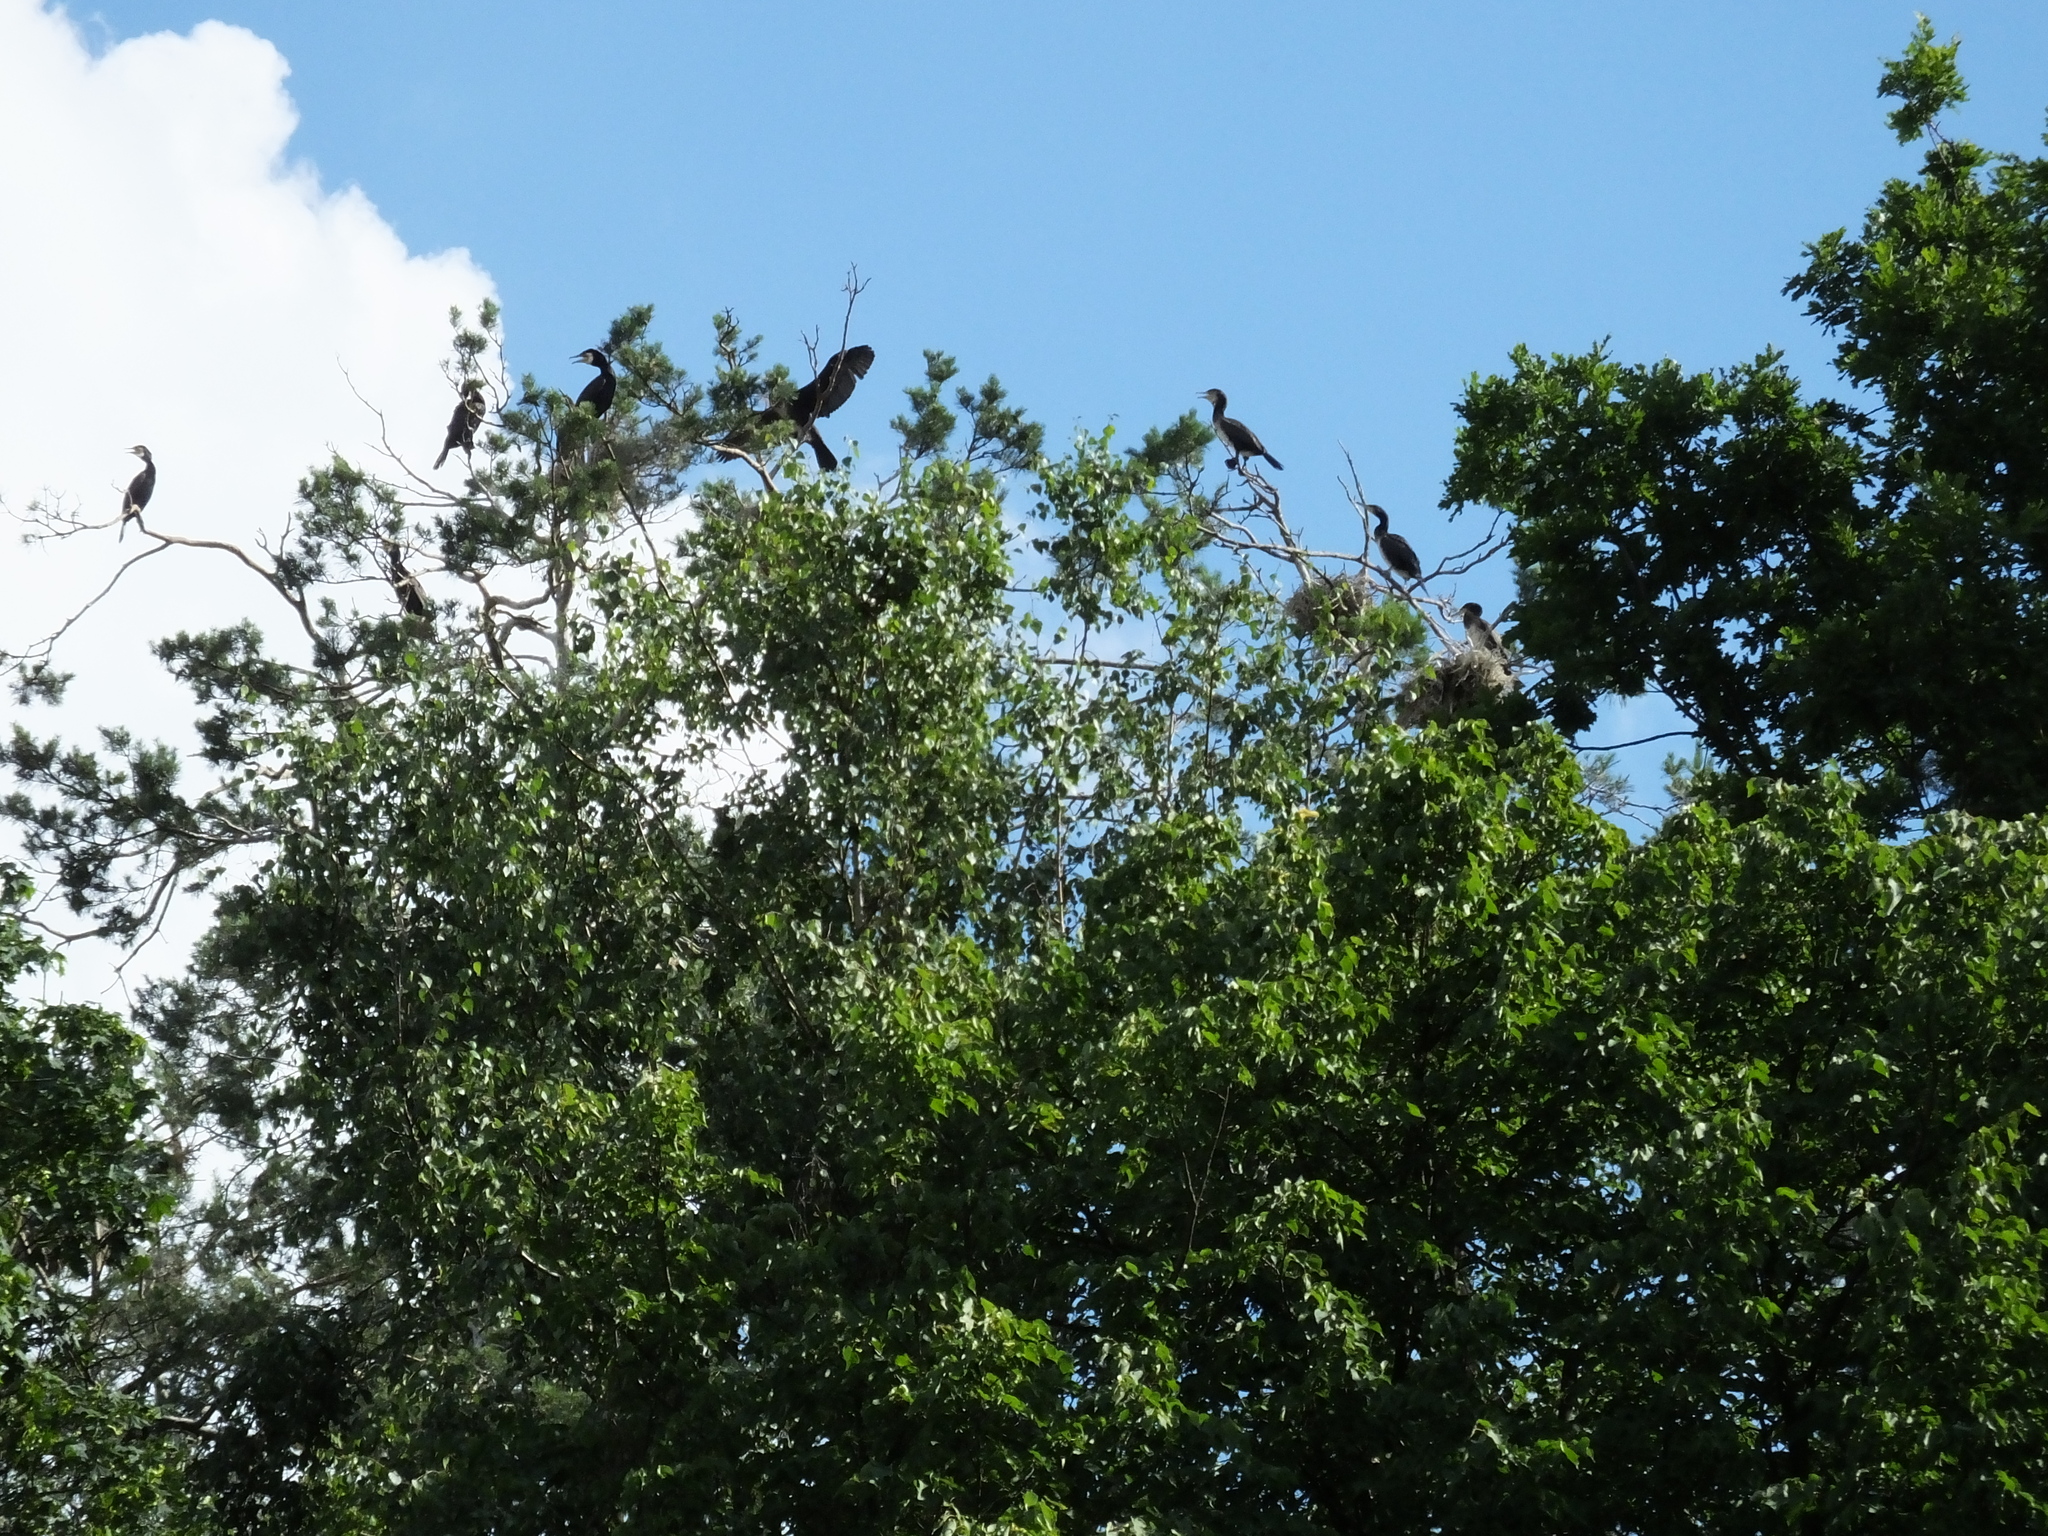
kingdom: Animalia
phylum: Chordata
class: Aves
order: Suliformes
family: Phalacrocoracidae
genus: Phalacrocorax
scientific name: Phalacrocorax carbo
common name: Great cormorant
